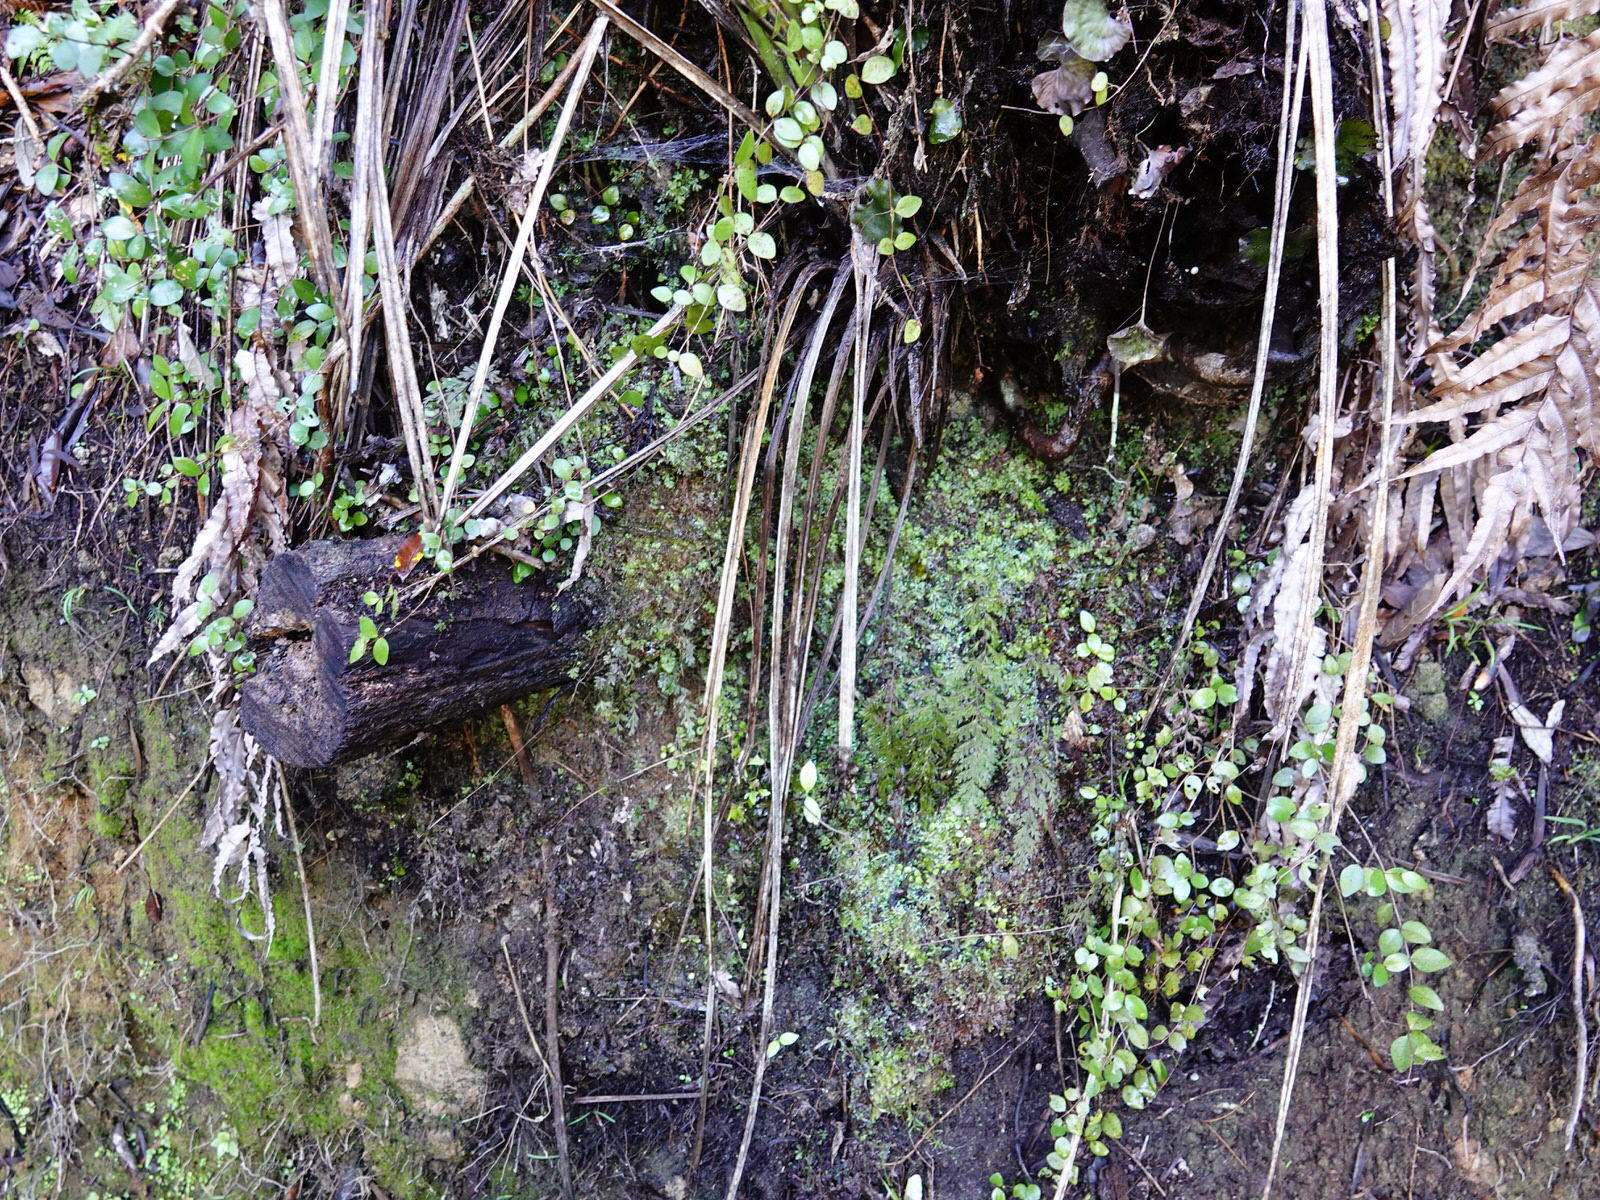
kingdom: Plantae
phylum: Tracheophyta
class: Polypodiopsida
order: Hymenophyllales
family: Hymenophyllaceae
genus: Hymenophyllum
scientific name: Hymenophyllum revolutum
